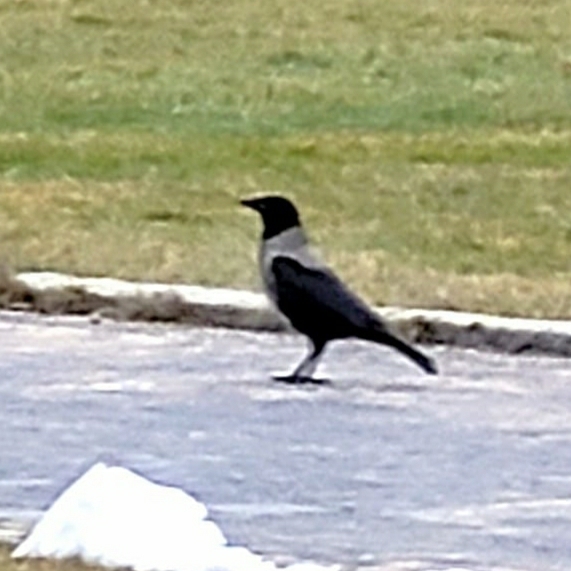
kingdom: Animalia
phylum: Chordata
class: Aves
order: Passeriformes
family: Corvidae
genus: Corvus
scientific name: Corvus
